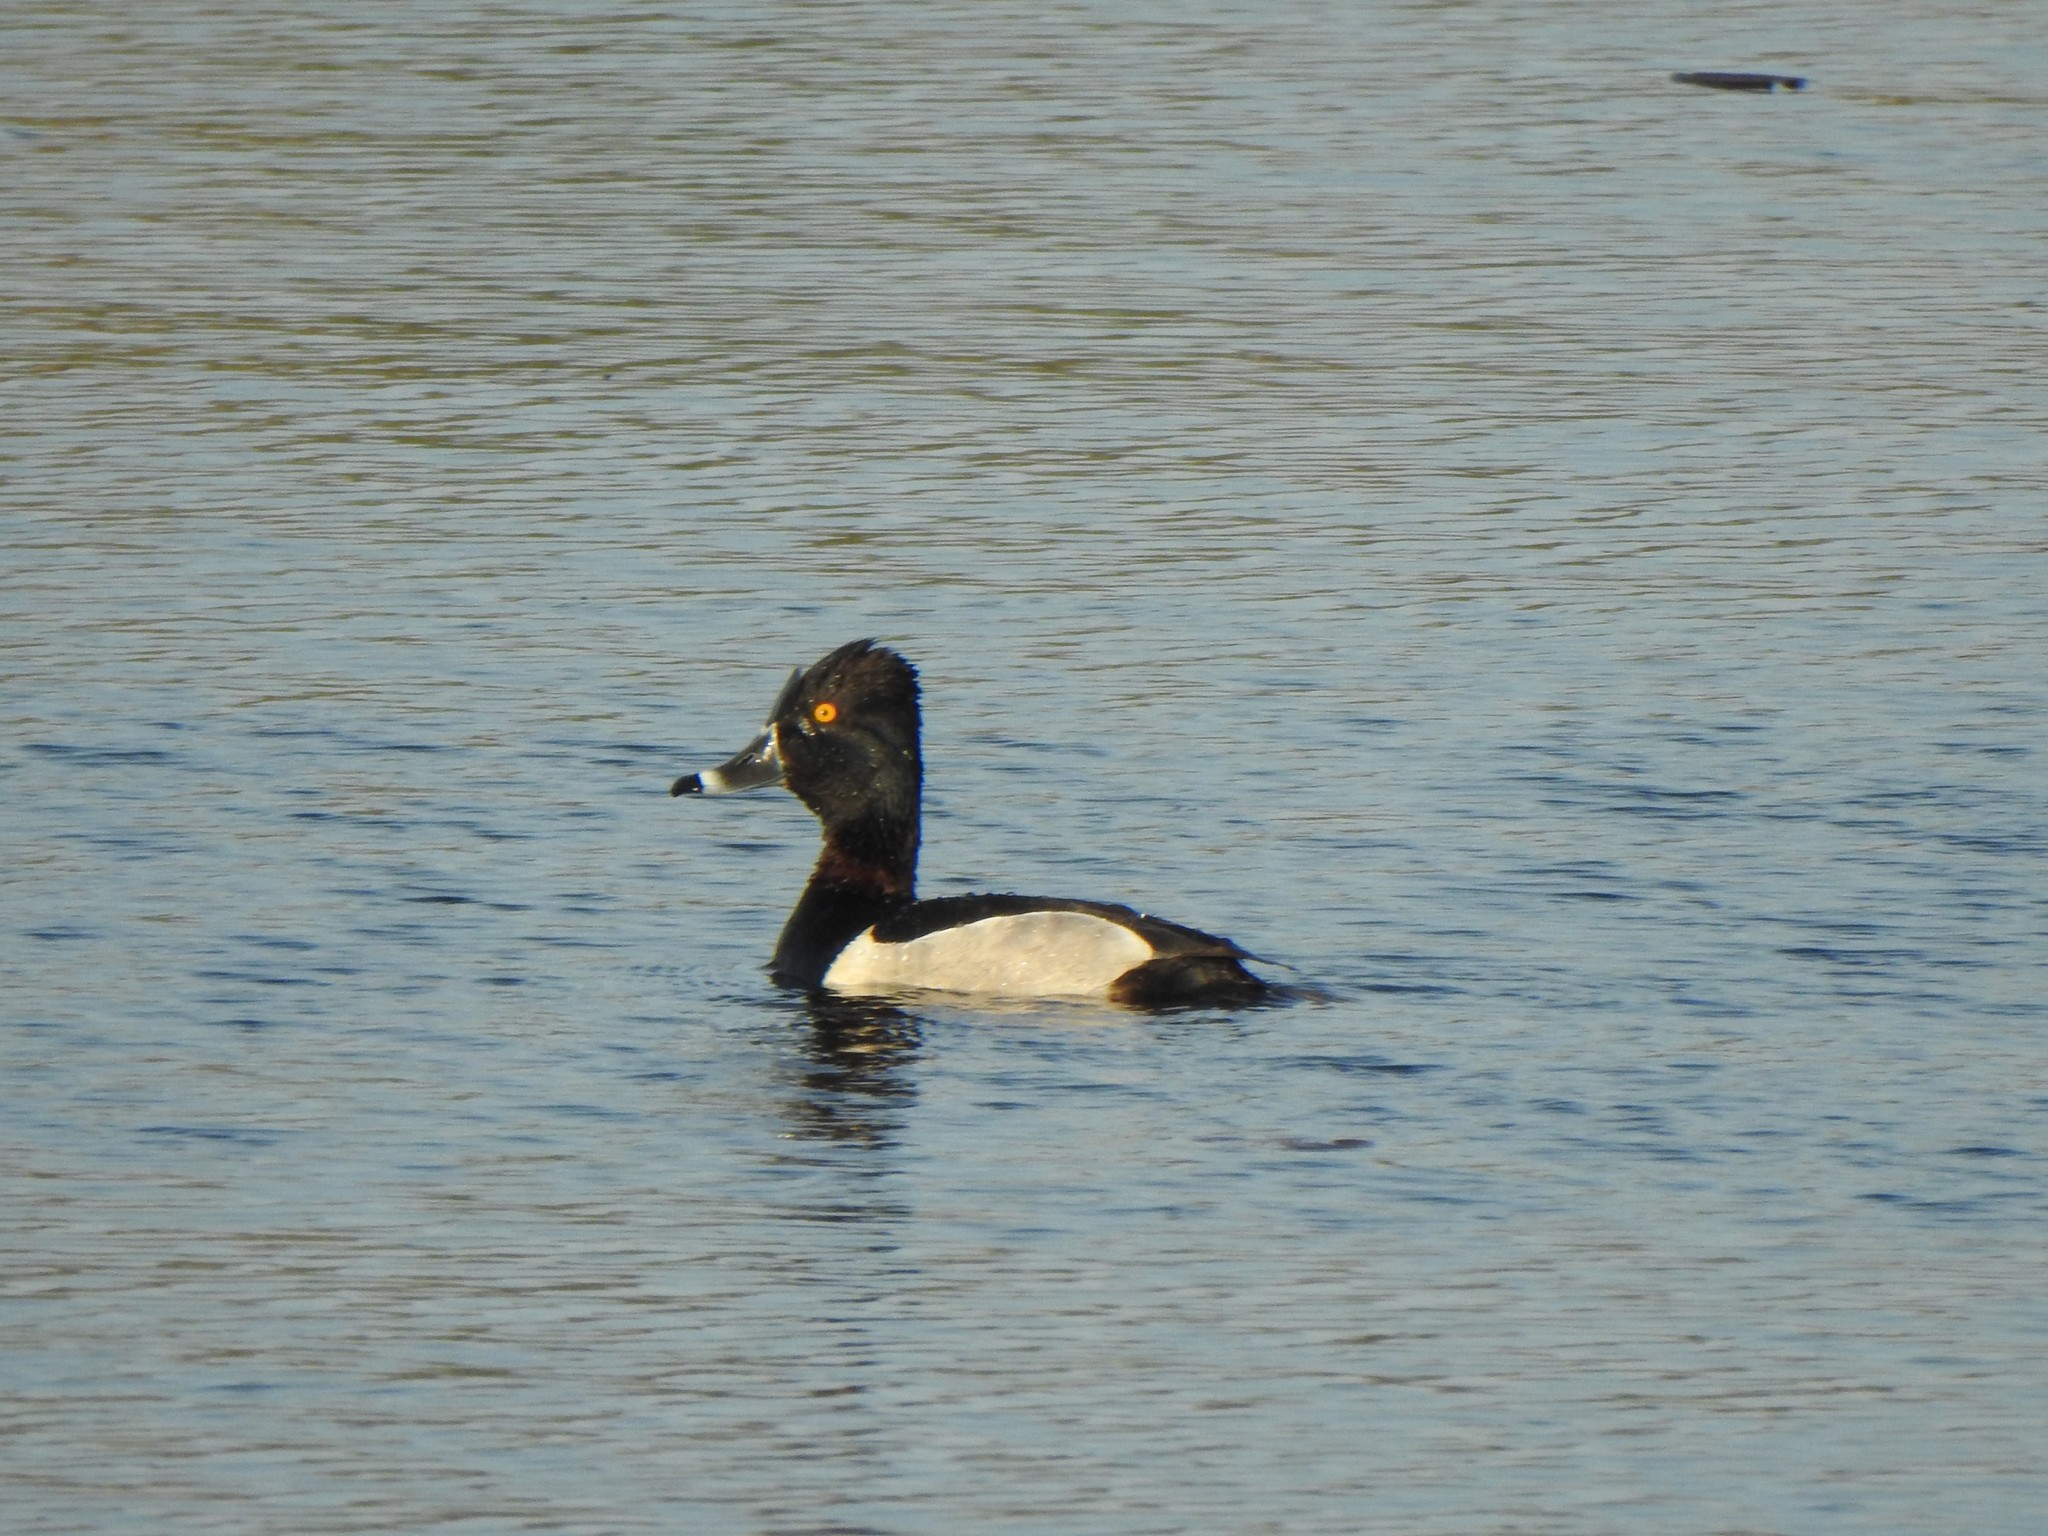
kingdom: Animalia
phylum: Chordata
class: Aves
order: Anseriformes
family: Anatidae
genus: Aythya
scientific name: Aythya collaris
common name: Ring-necked duck
